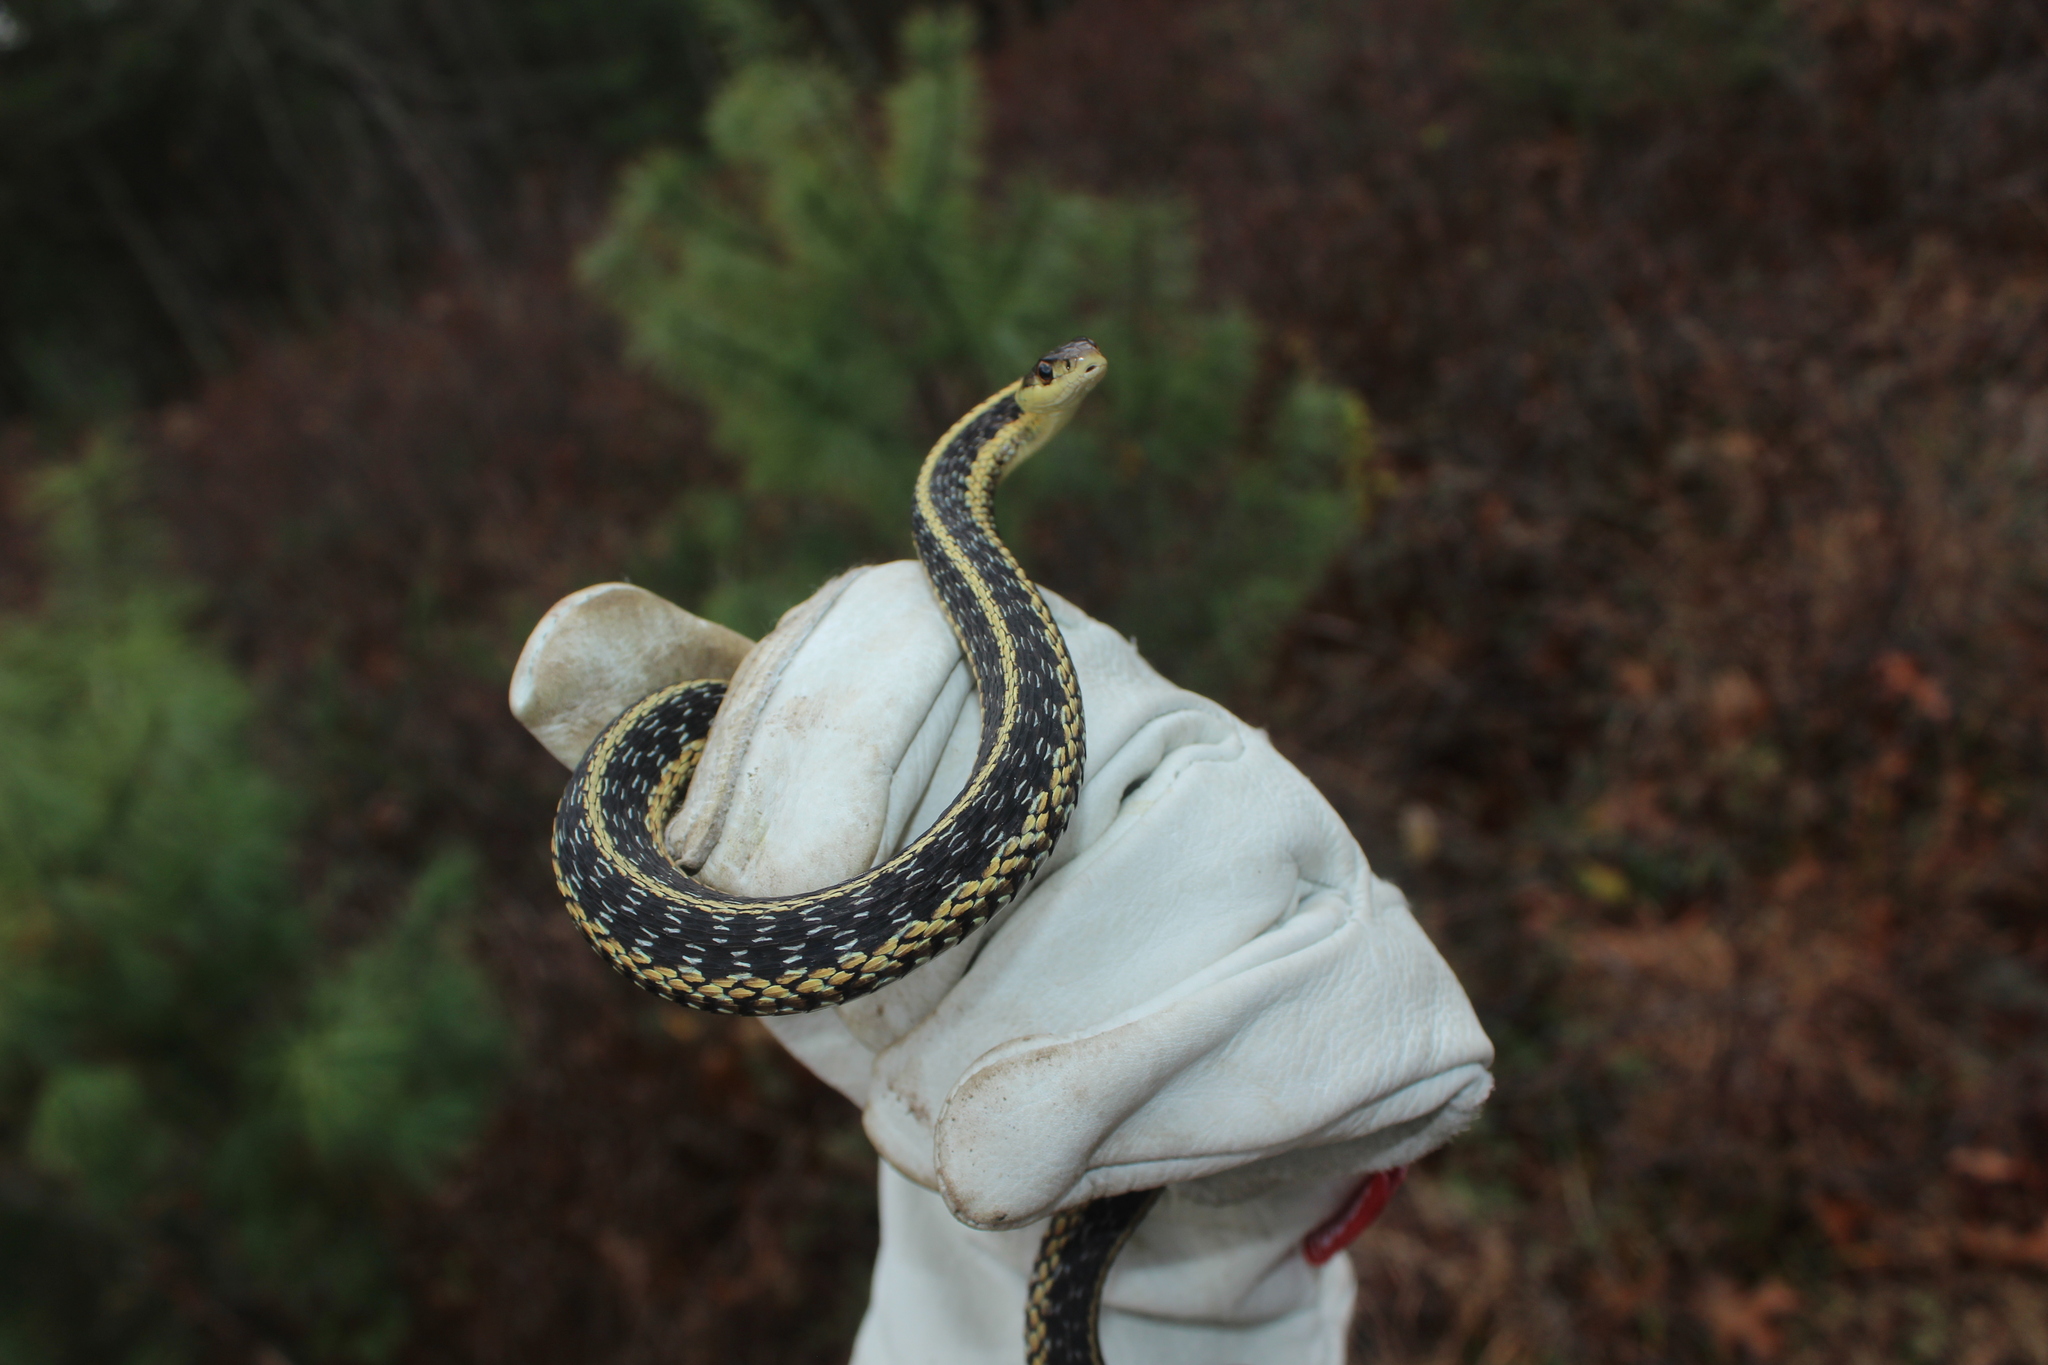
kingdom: Animalia
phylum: Chordata
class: Squamata
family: Colubridae
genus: Thamnophis
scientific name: Thamnophis sirtalis
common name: Common garter snake
